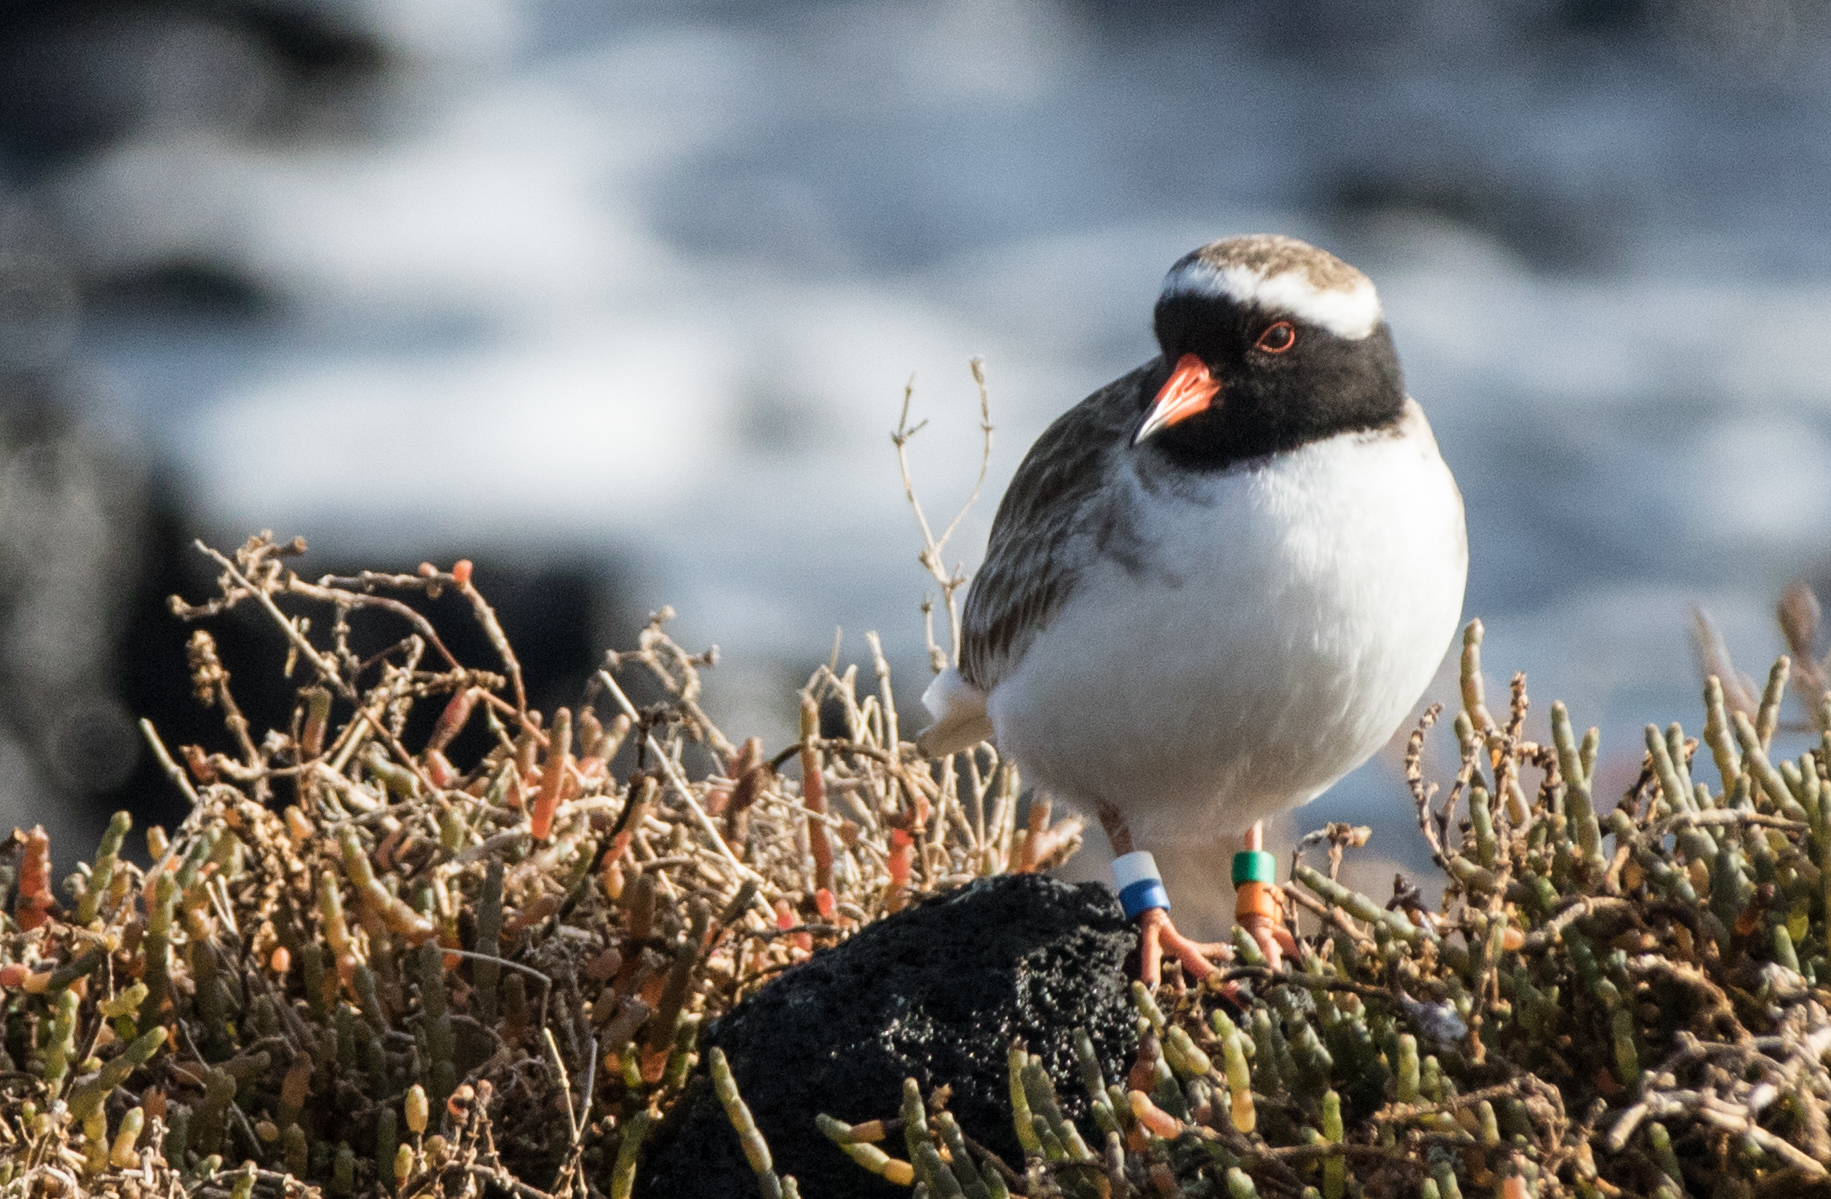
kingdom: Animalia
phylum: Chordata
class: Aves
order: Charadriiformes
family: Charadriidae
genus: Thinornis
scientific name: Thinornis novaeseelandiae
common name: Shore dotterel
